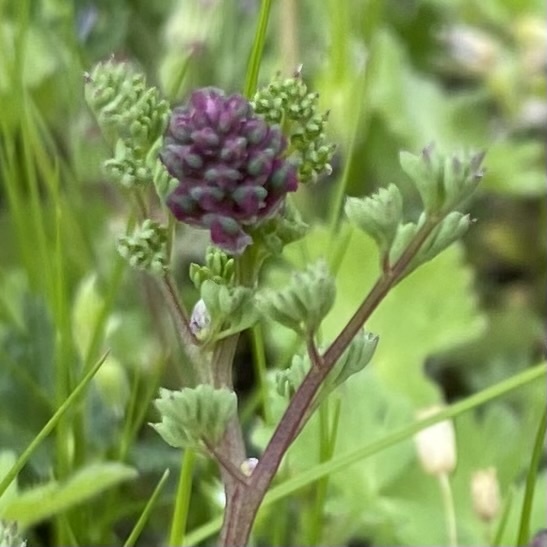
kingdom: Plantae
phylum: Tracheophyta
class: Magnoliopsida
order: Ranunculales
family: Papaveraceae
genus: Fumaria
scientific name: Fumaria officinalis
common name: Common fumitory
